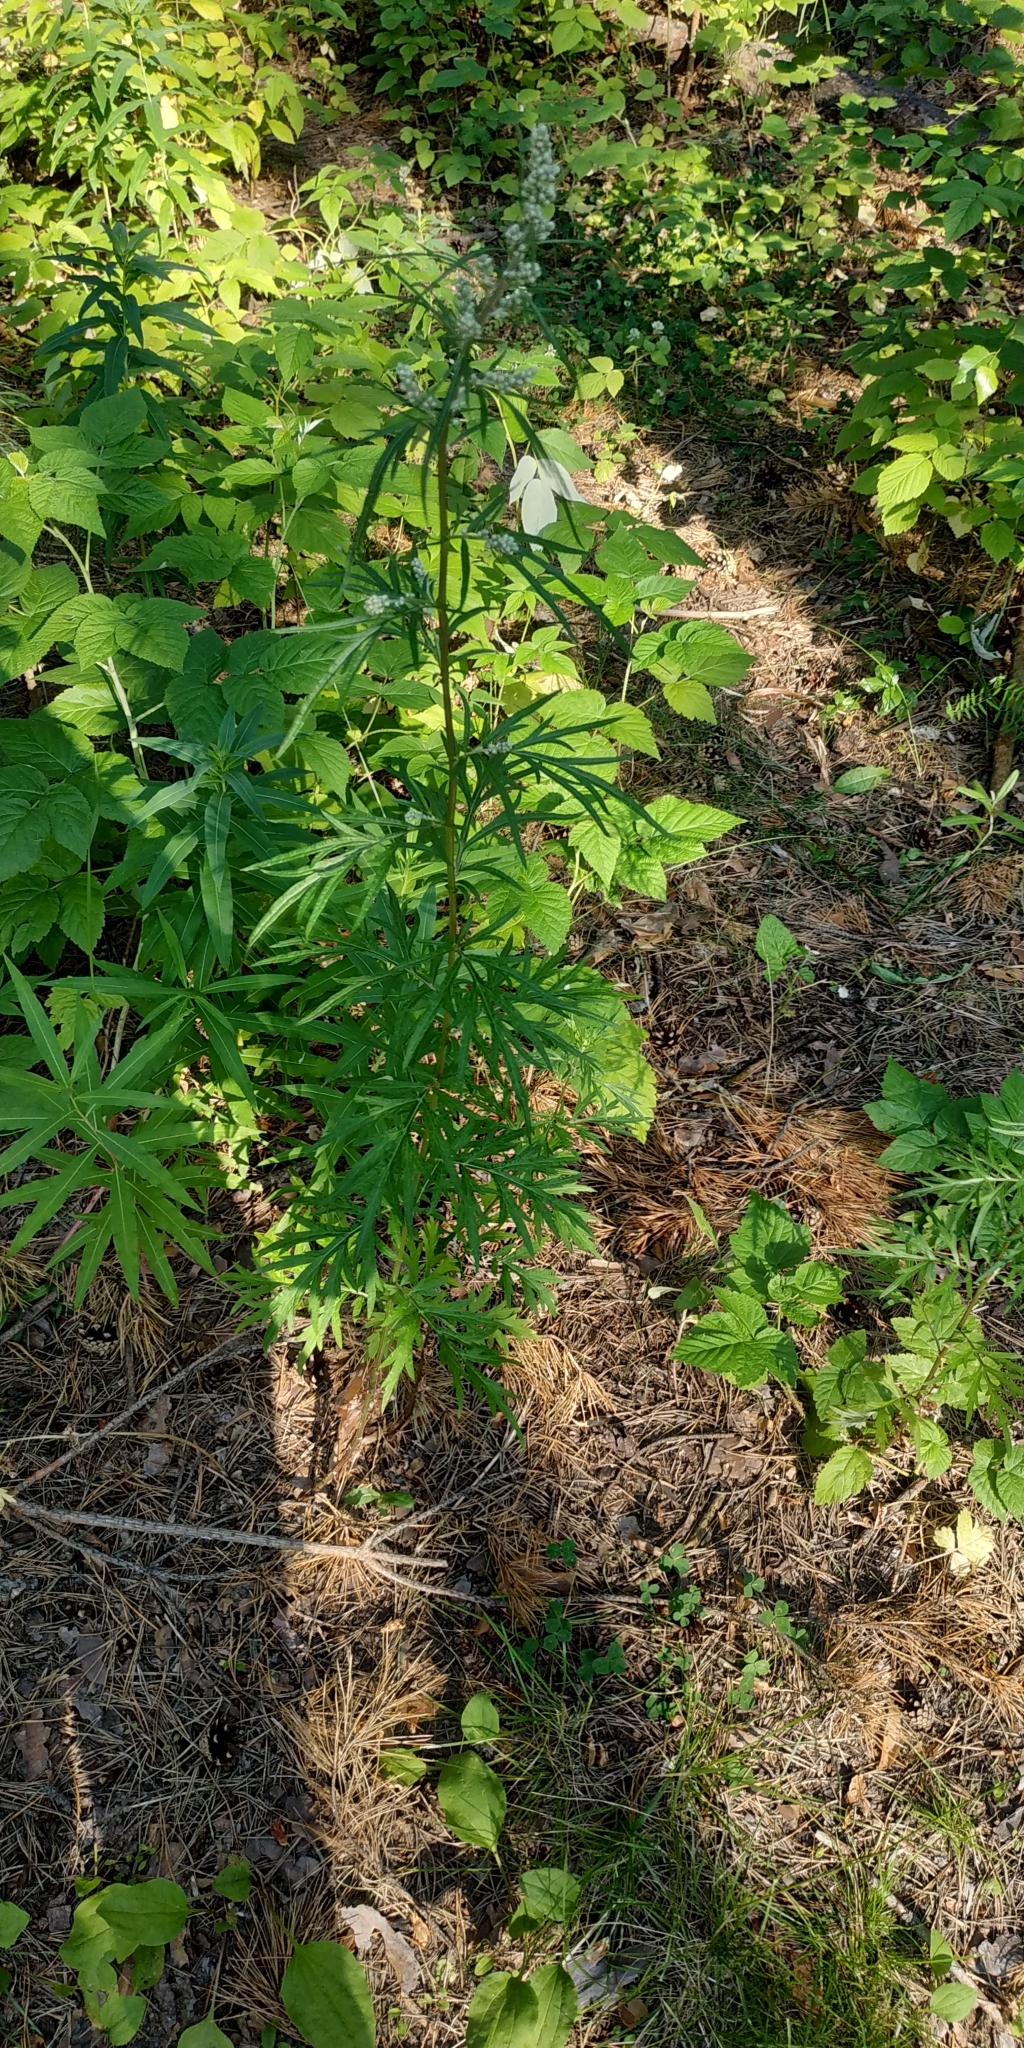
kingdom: Plantae
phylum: Tracheophyta
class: Magnoliopsida
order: Asterales
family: Asteraceae
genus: Artemisia
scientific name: Artemisia vulgaris
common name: Mugwort
